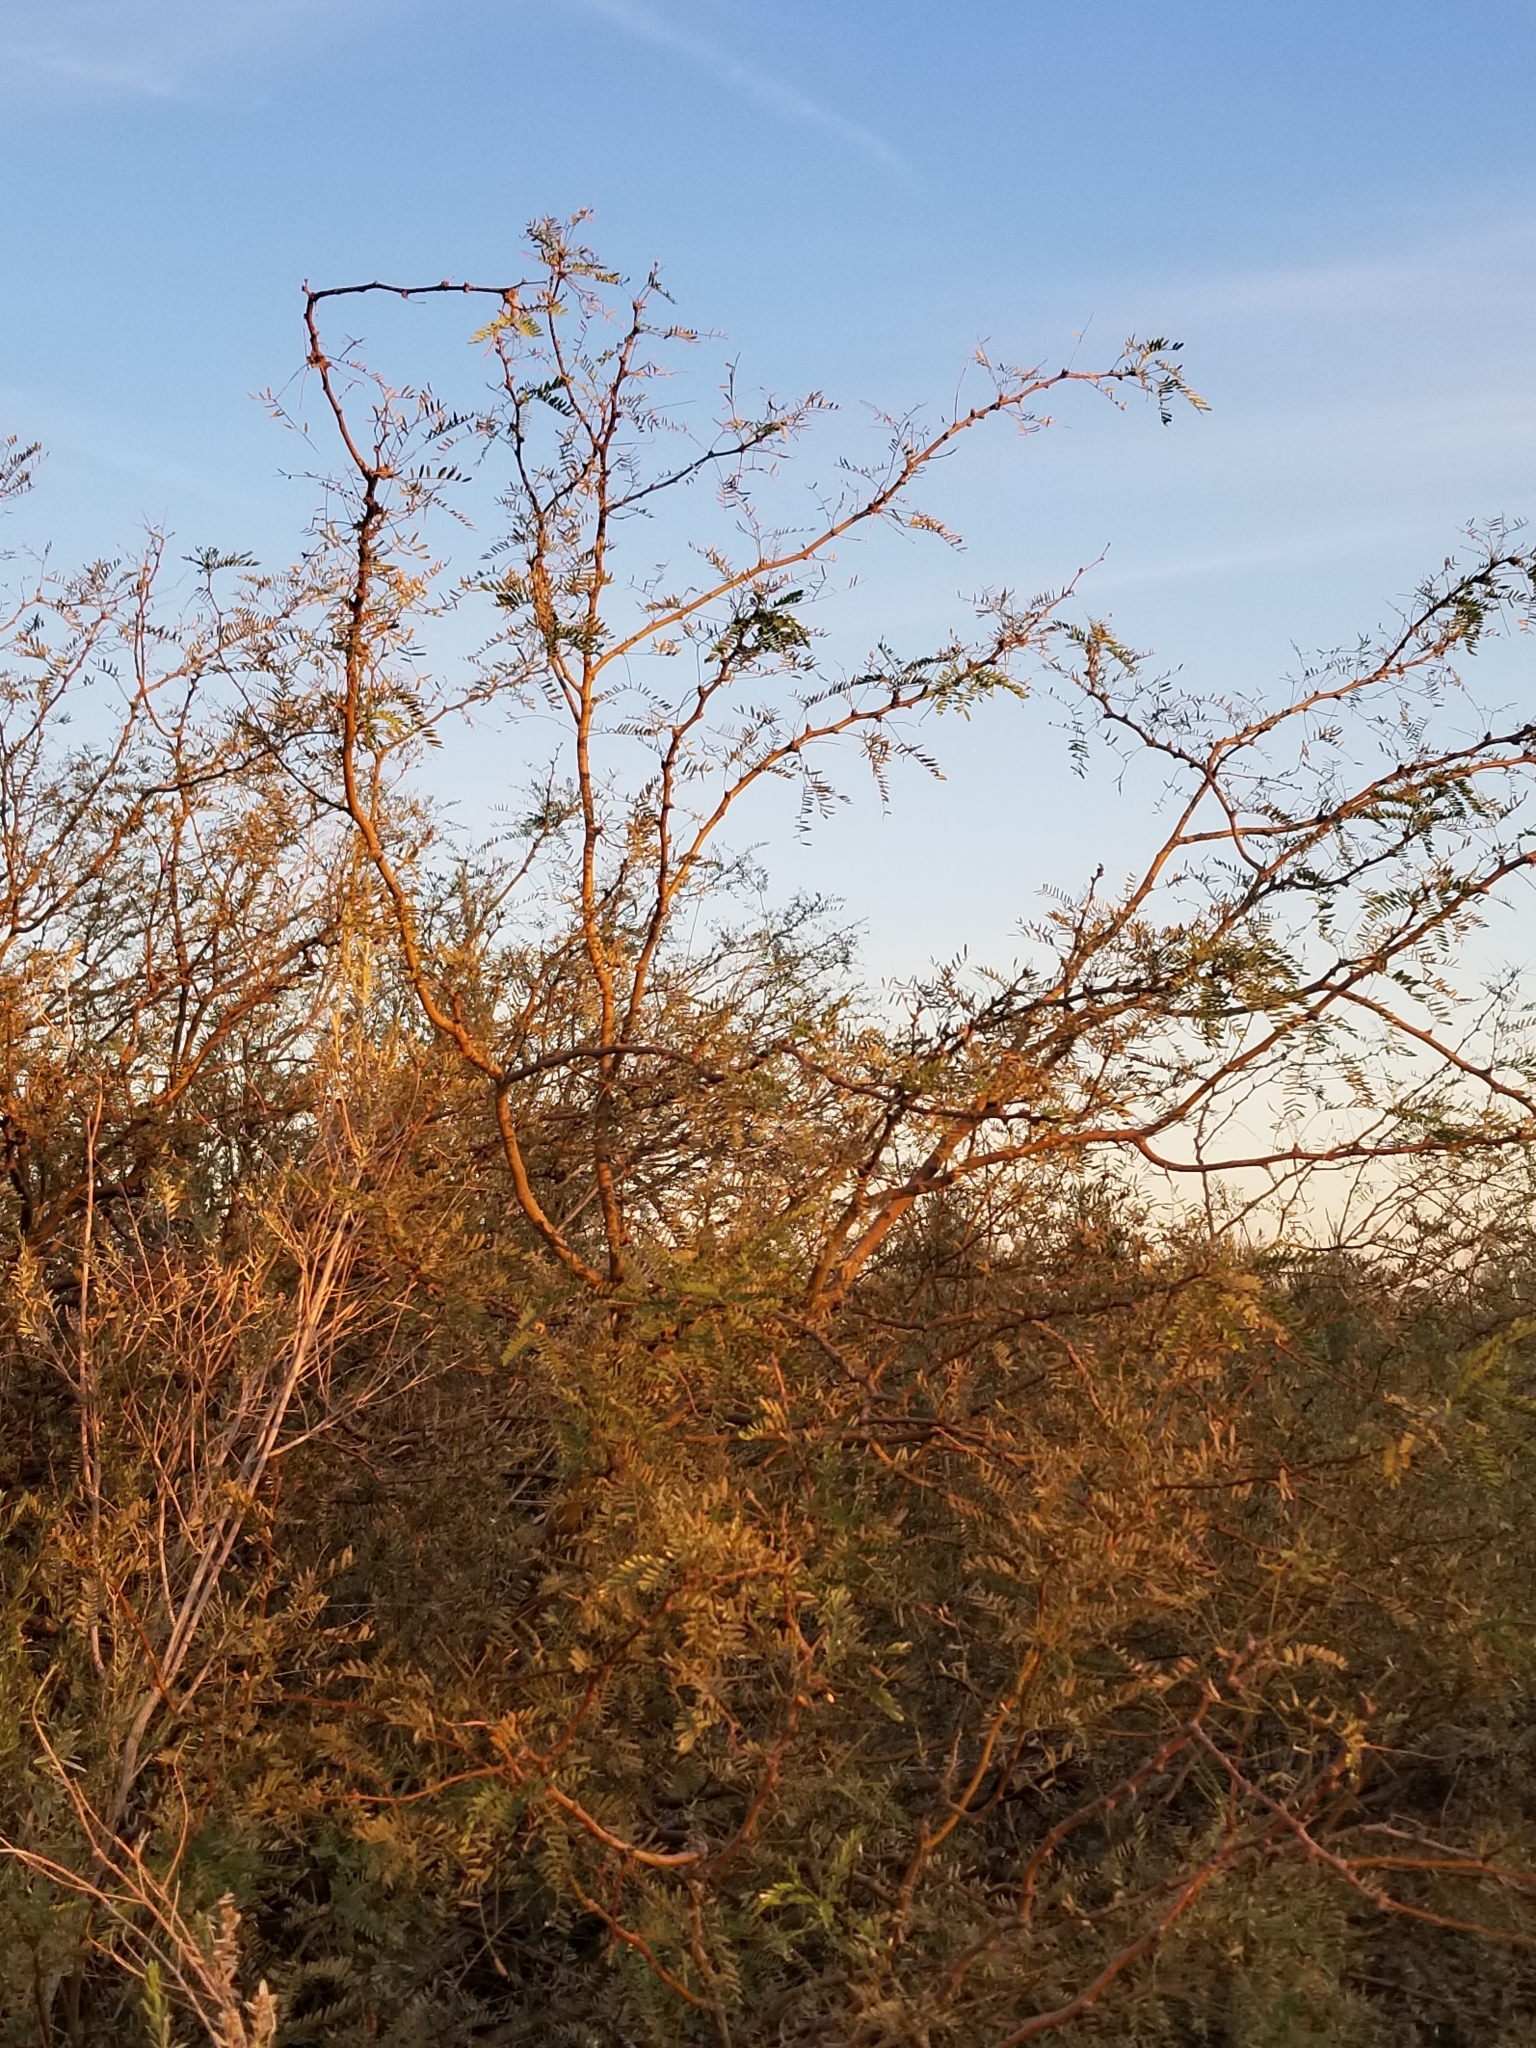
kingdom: Plantae
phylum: Tracheophyta
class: Magnoliopsida
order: Fabales
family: Fabaceae
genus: Prosopis
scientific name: Prosopis velutina
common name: Velvet mesquite
